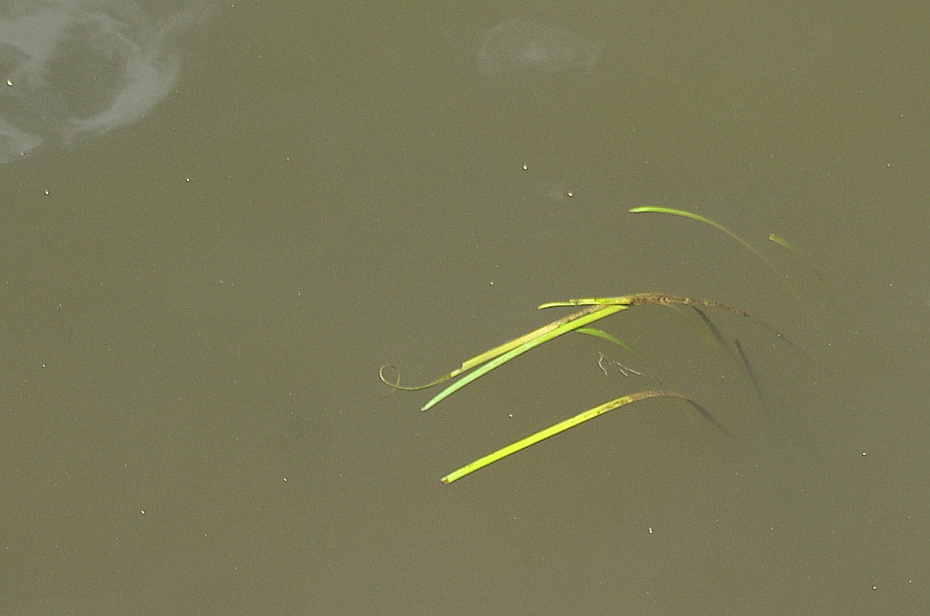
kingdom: Plantae
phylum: Tracheophyta
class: Liliopsida
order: Poales
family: Typhaceae
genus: Sparganium
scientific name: Sparganium emersum
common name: Unbranched bur-reed
